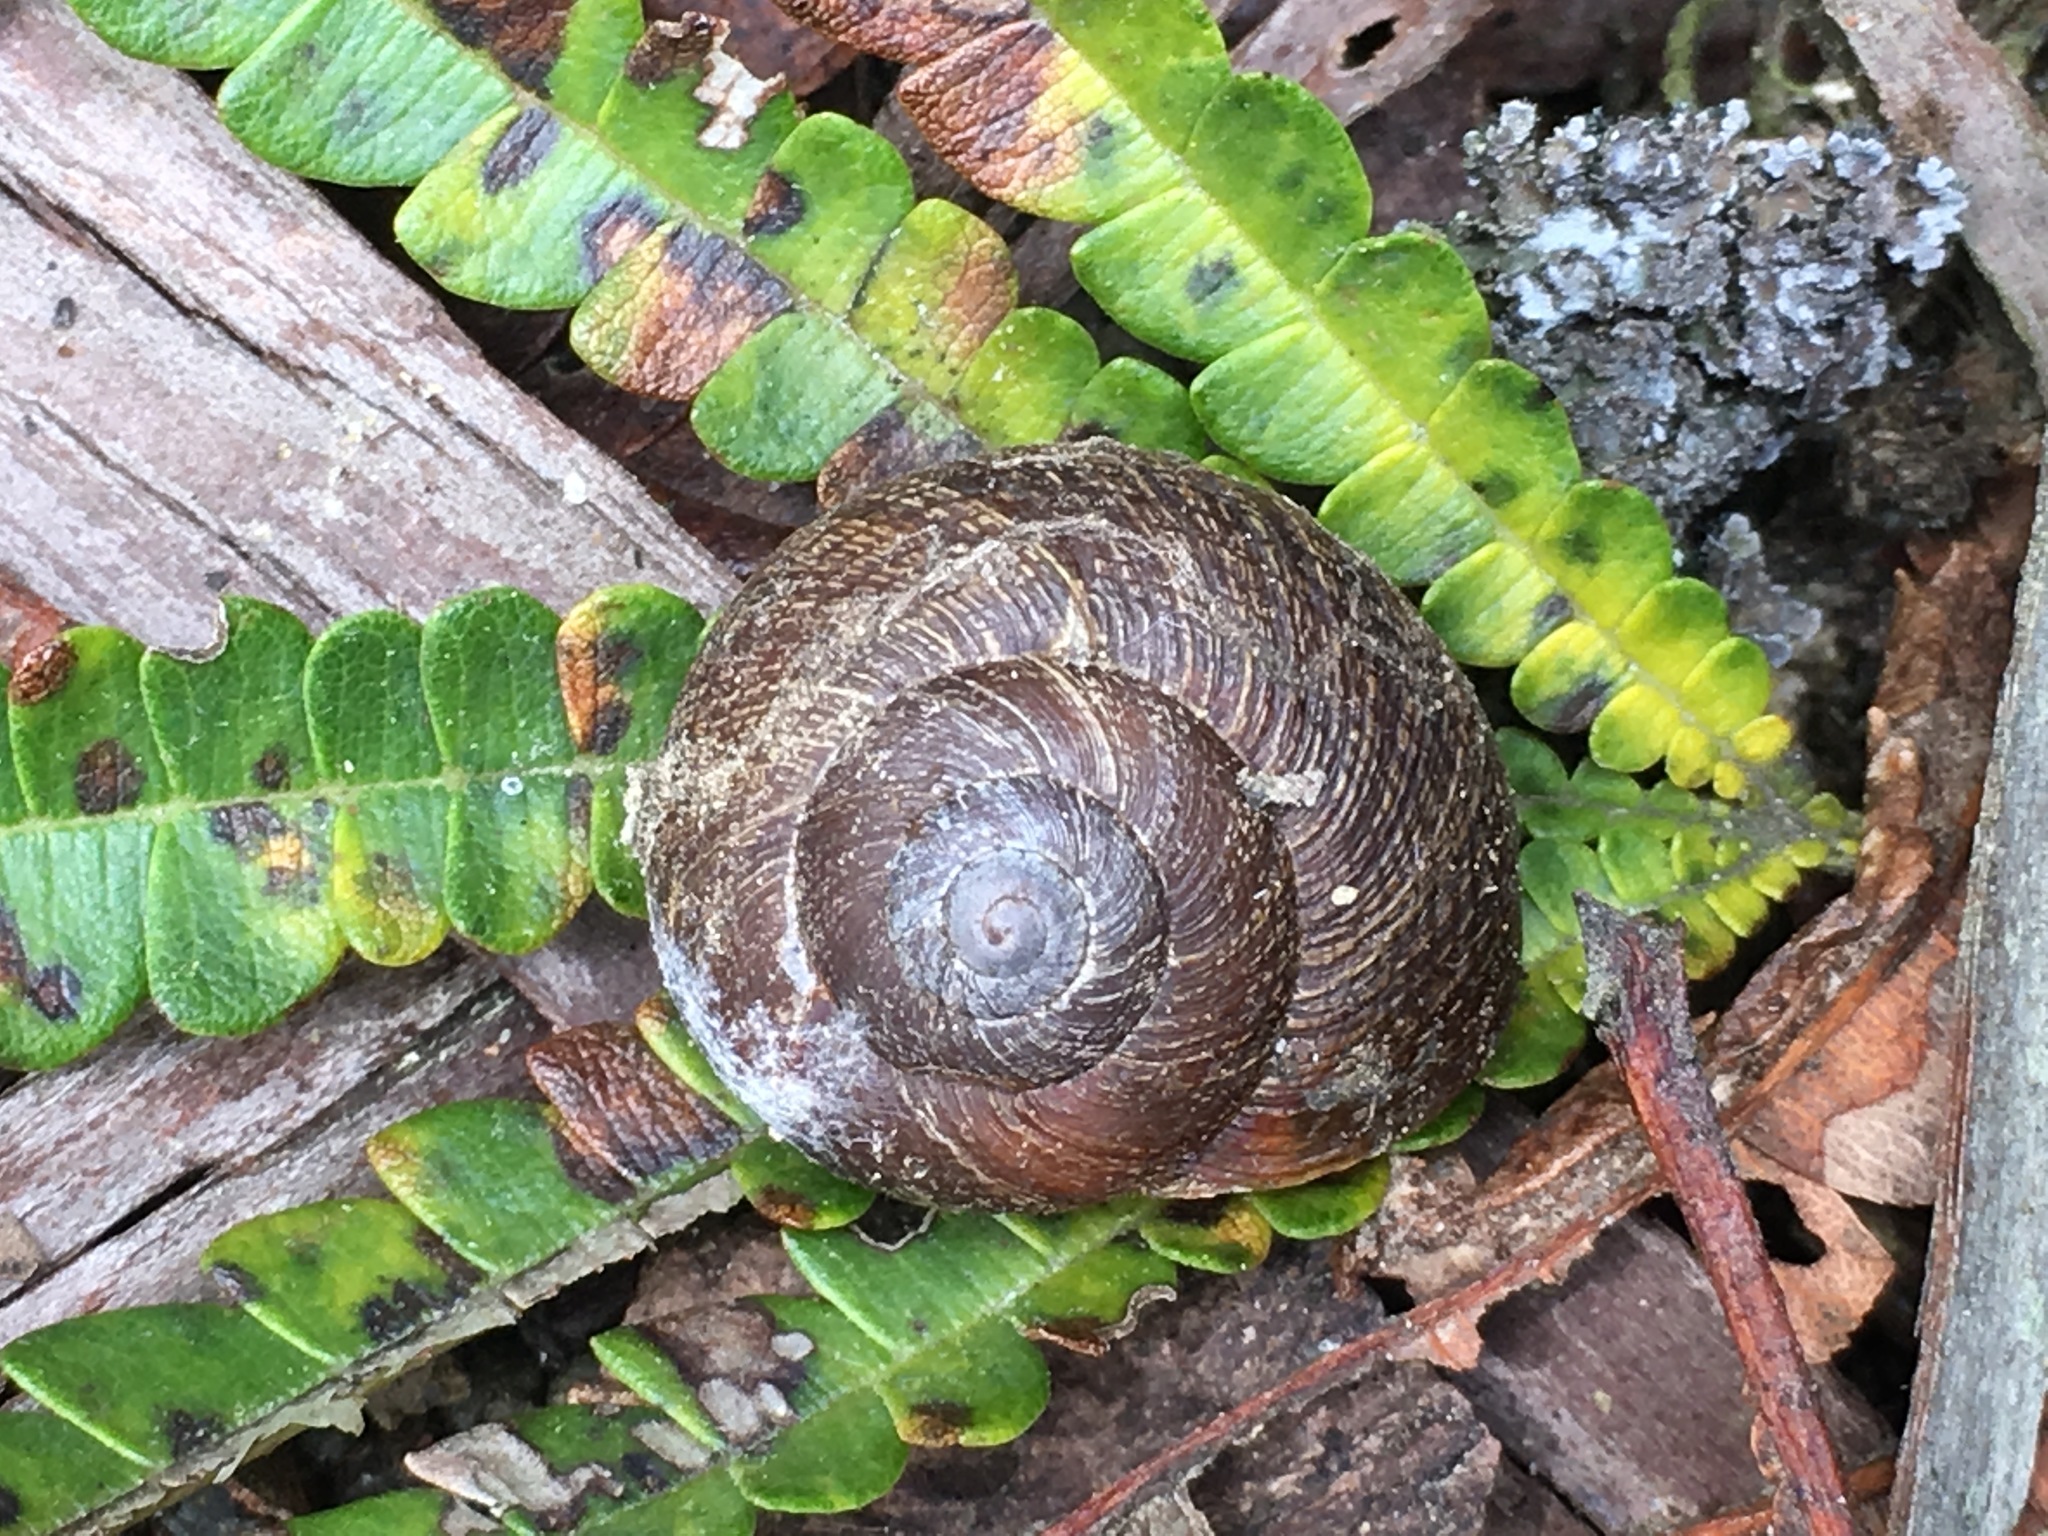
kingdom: Animalia
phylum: Mollusca
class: Gastropoda
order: Stylommatophora
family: Xanthonychidae
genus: Xerarionta
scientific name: Xerarionta intercisa
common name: Plain cactus snail
